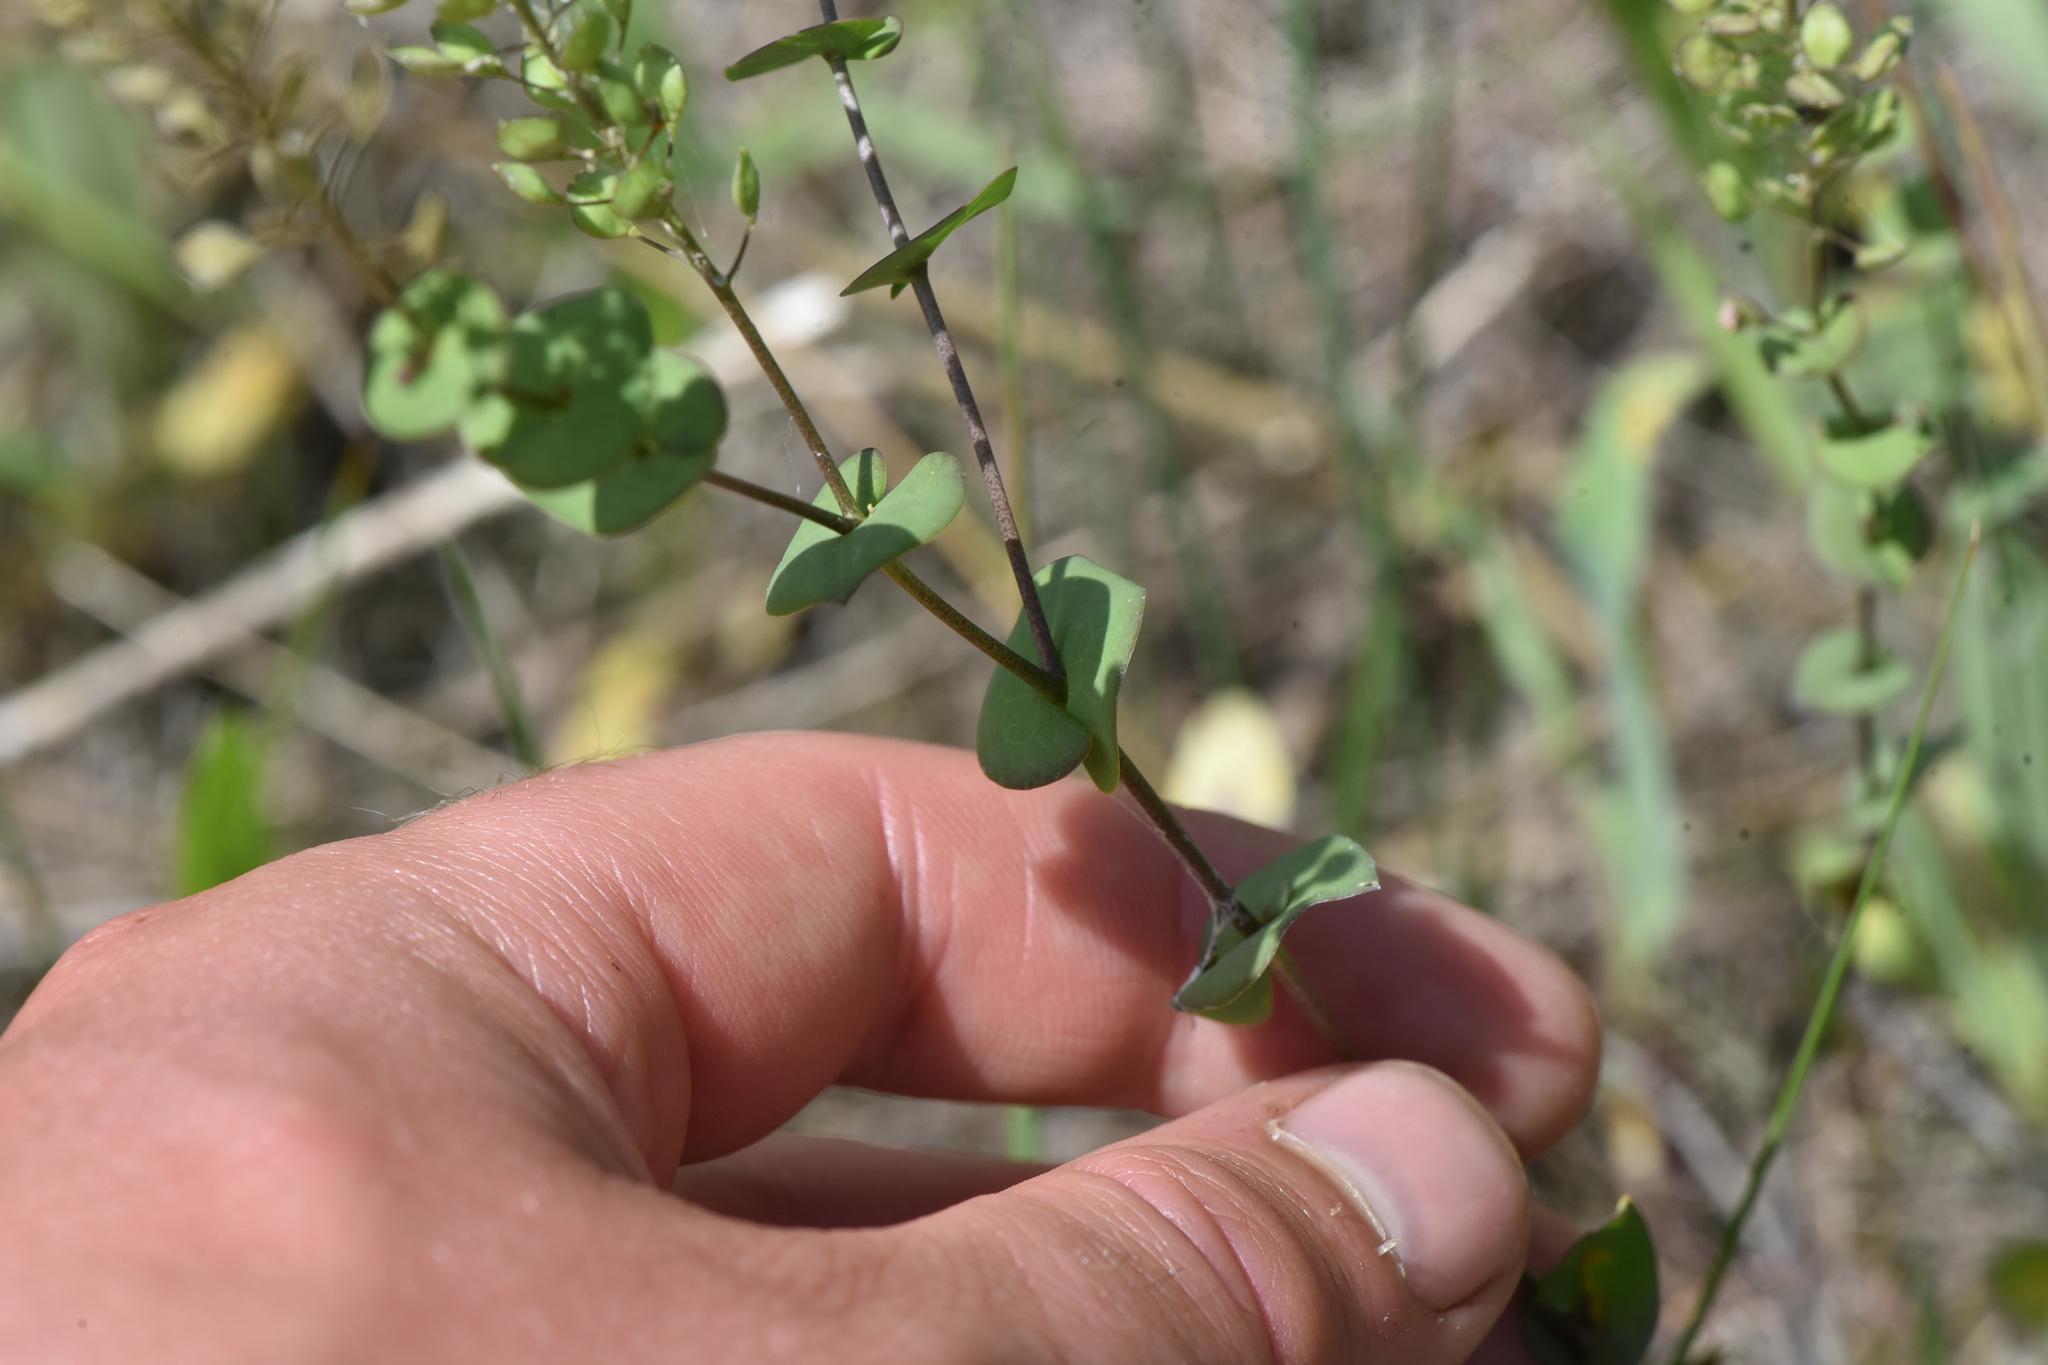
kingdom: Plantae
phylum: Tracheophyta
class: Magnoliopsida
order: Brassicales
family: Brassicaceae
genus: Lepidium
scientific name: Lepidium perfoliatum
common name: Perfoliate pepperwort
